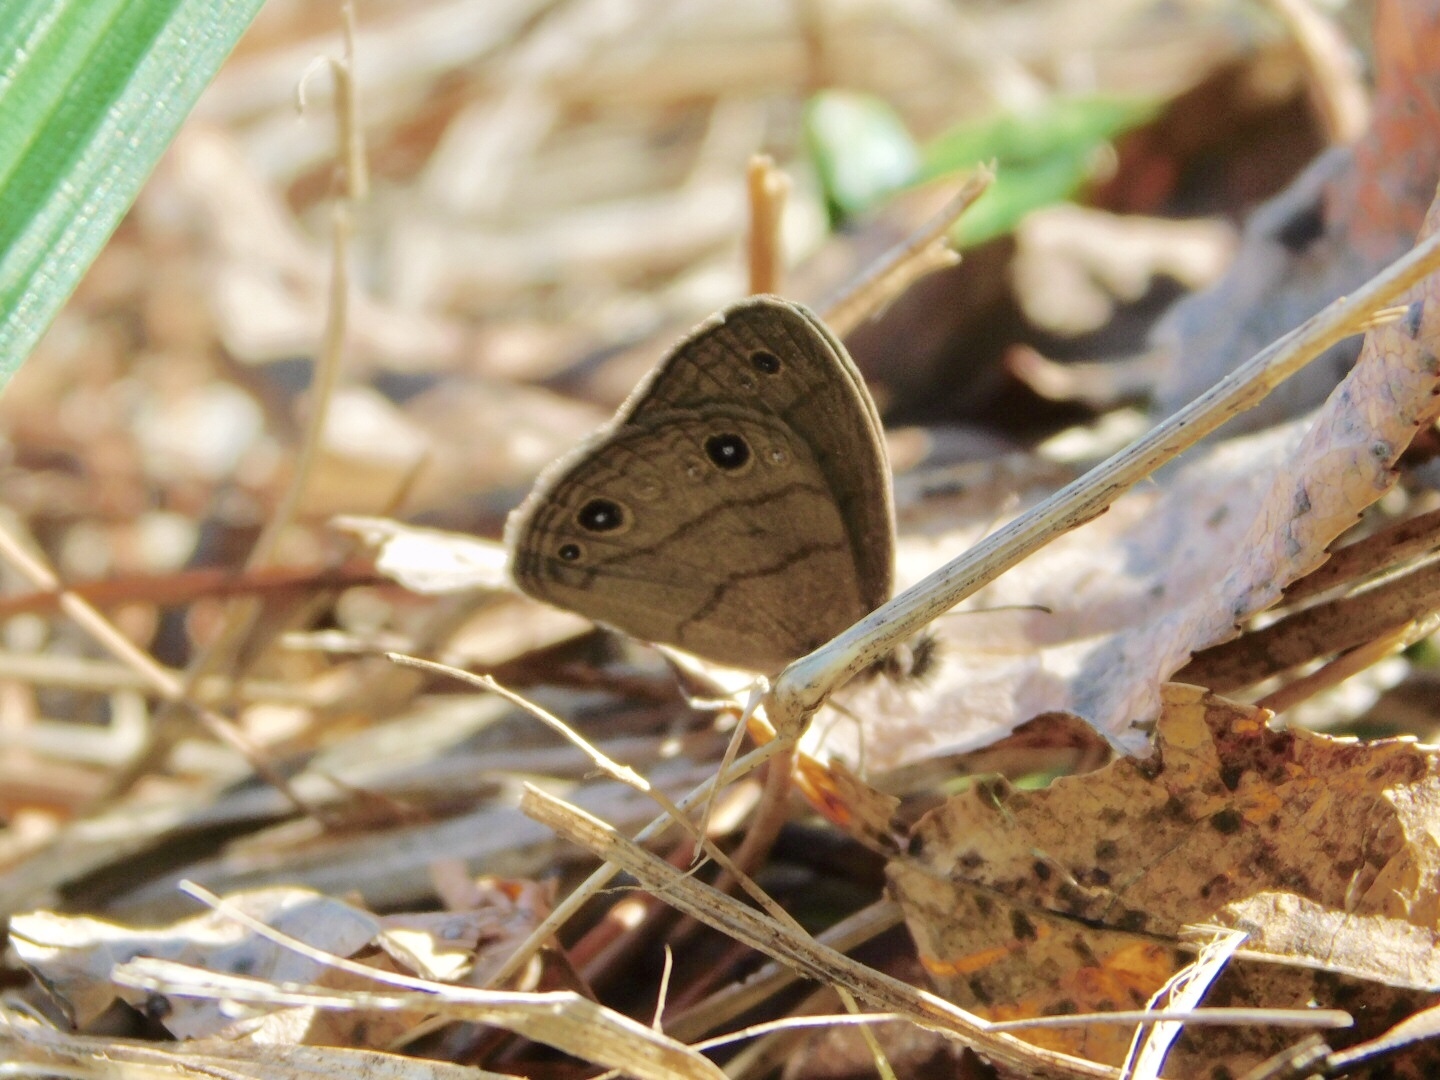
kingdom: Animalia
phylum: Arthropoda
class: Insecta
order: Lepidoptera
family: Nymphalidae
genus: Hermeuptychia
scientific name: Hermeuptychia hermes
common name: Hermes satyr
